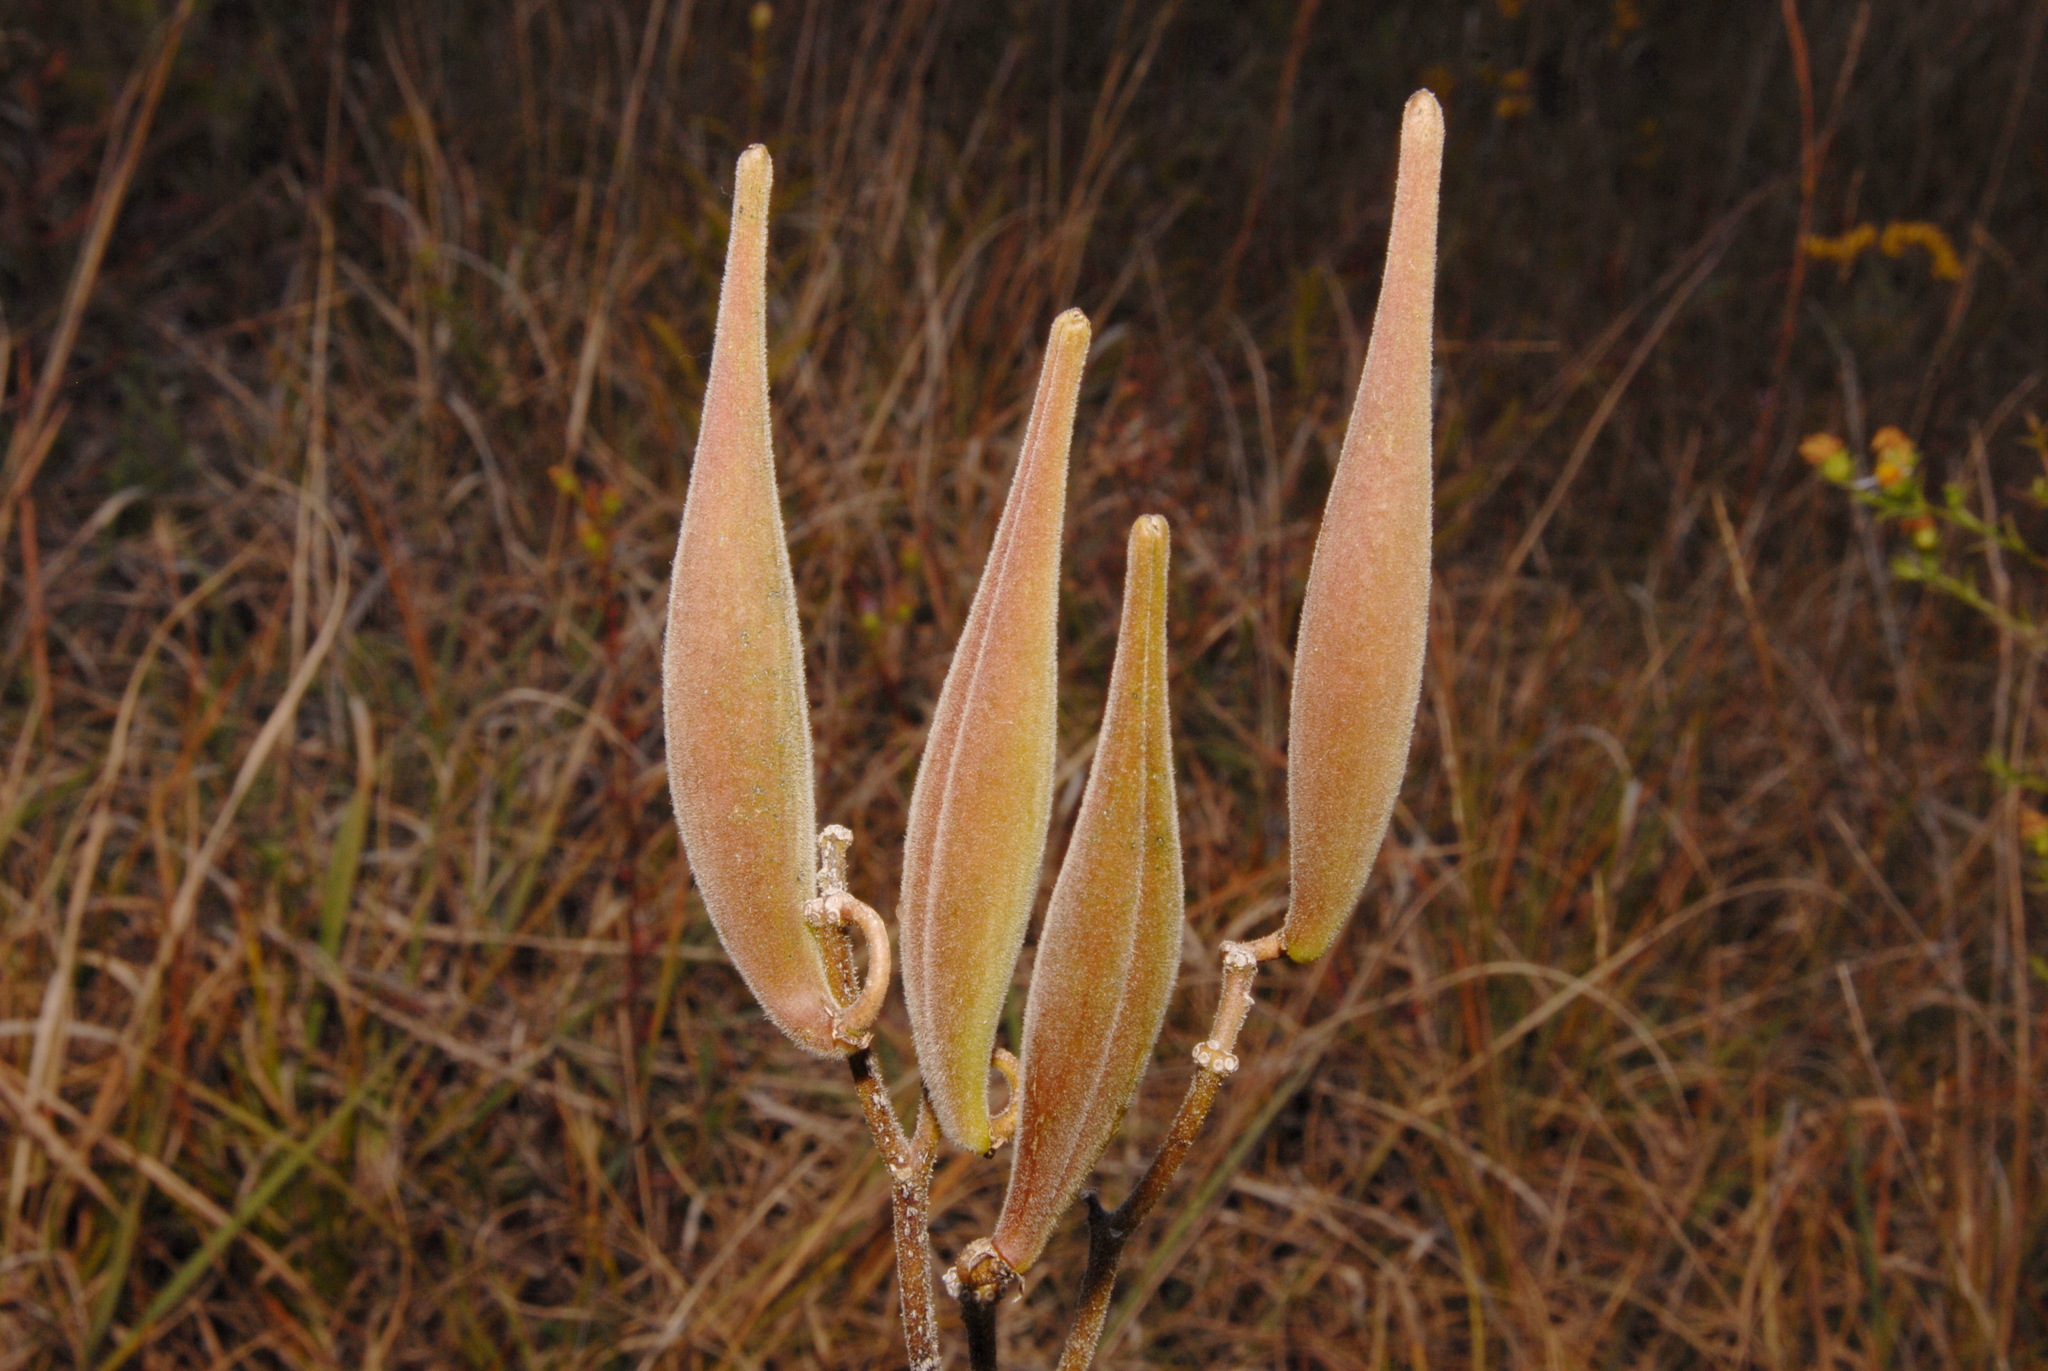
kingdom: Plantae
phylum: Tracheophyta
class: Magnoliopsida
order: Gentianales
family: Apocynaceae
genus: Asclepias
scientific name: Asclepias viridiflora
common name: Green comet milkweed
